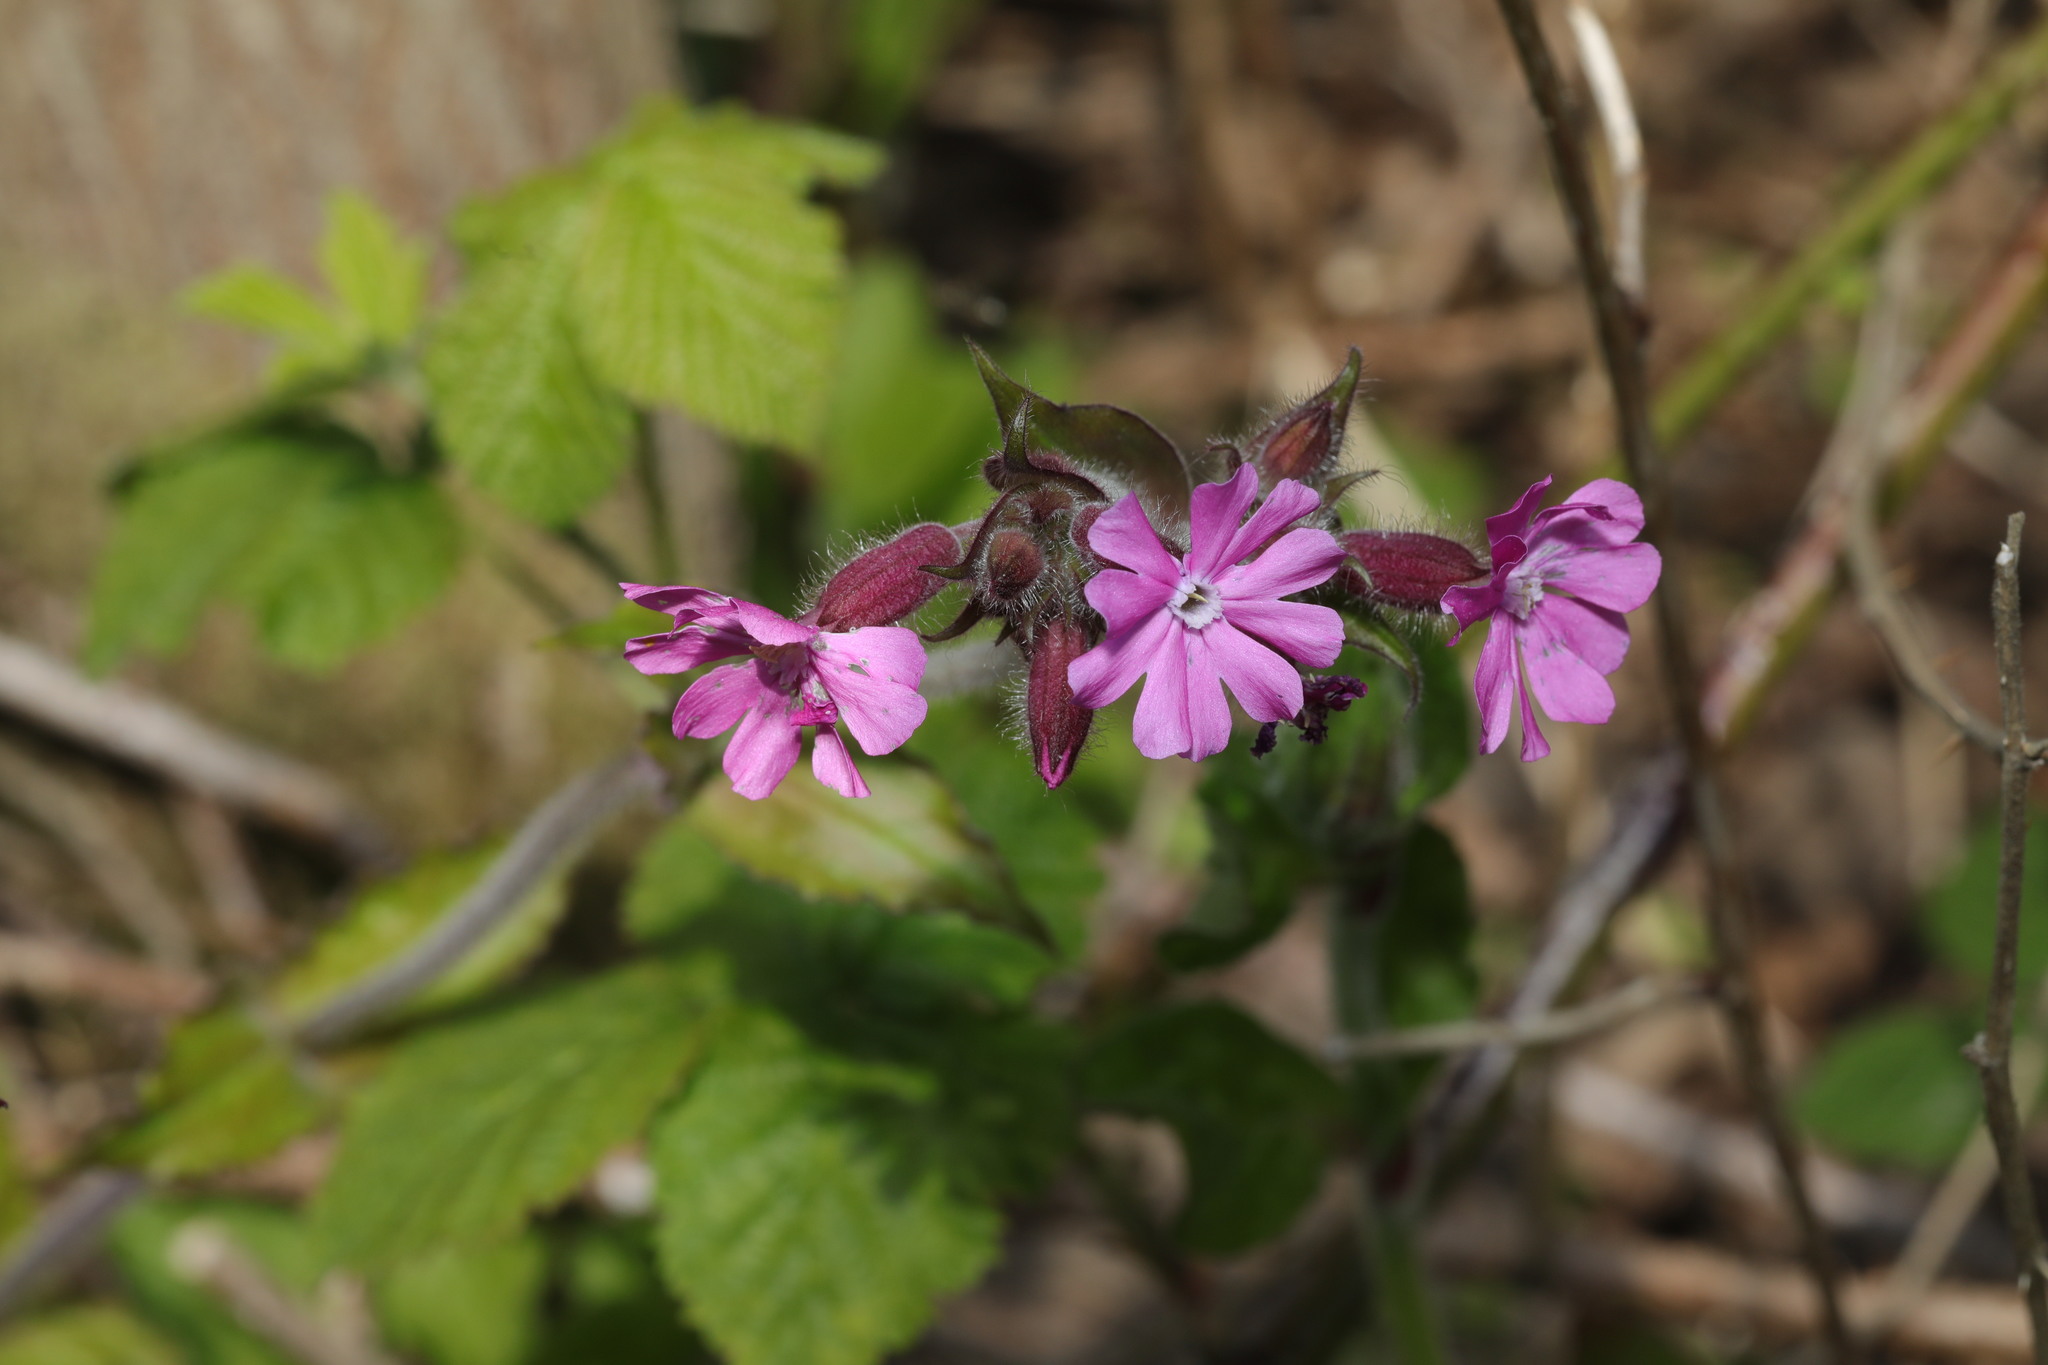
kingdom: Plantae
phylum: Tracheophyta
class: Magnoliopsida
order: Caryophyllales
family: Caryophyllaceae
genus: Silene
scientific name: Silene dioica
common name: Red campion
